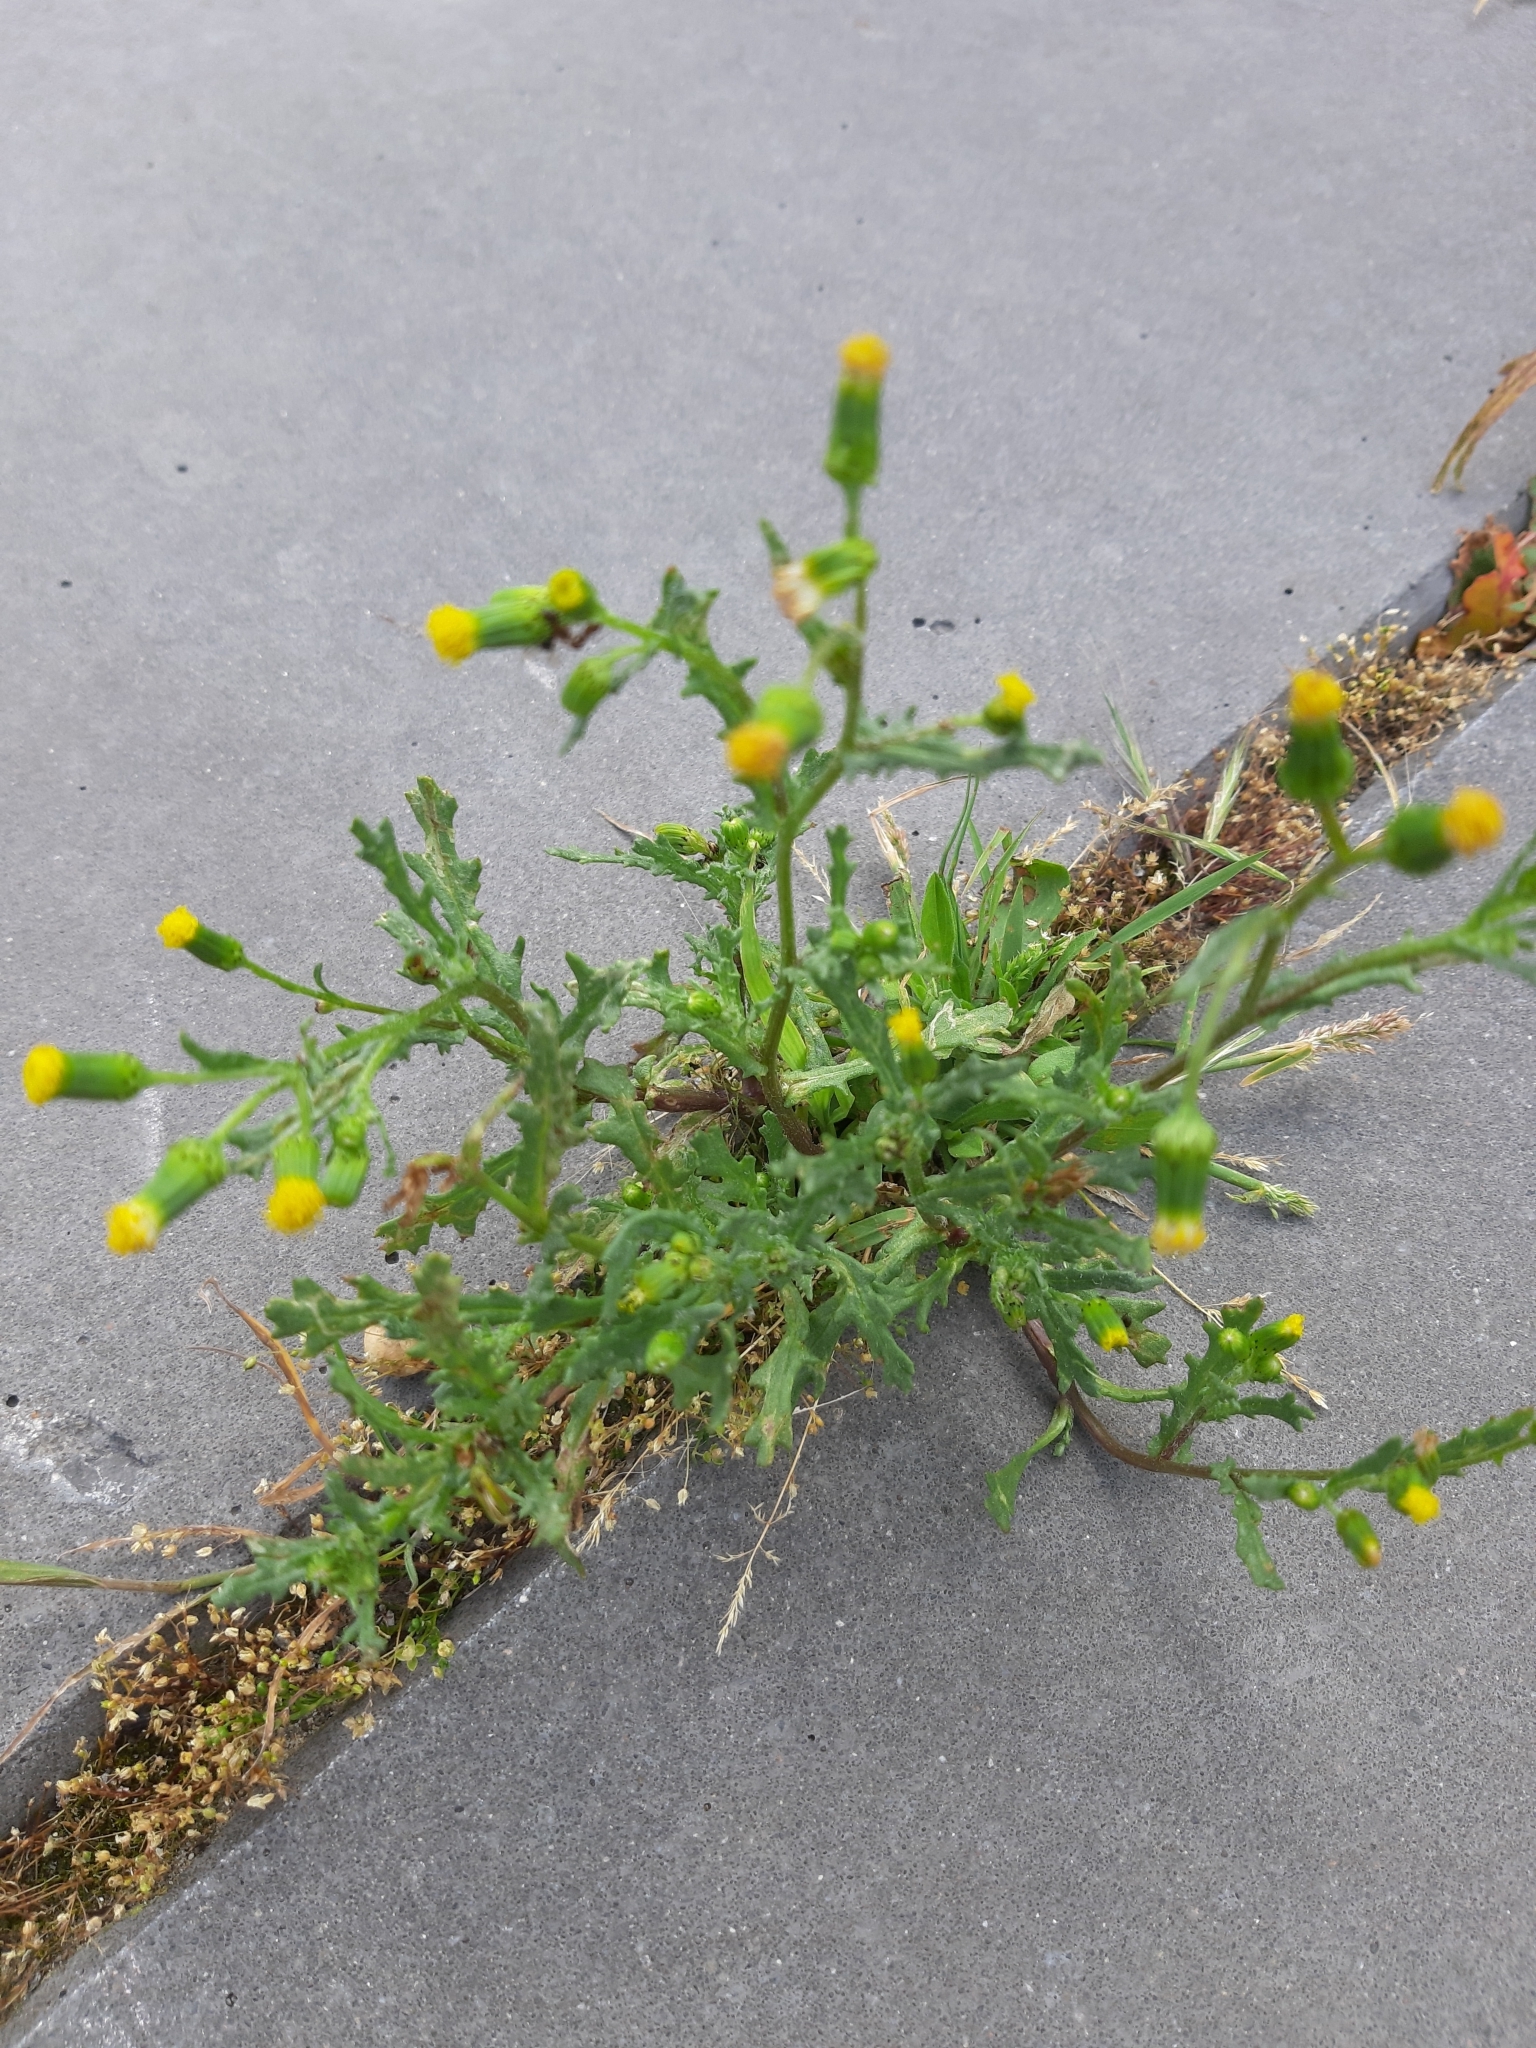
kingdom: Plantae
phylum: Tracheophyta
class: Magnoliopsida
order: Asterales
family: Asteraceae
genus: Senecio
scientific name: Senecio vulgaris
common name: Old-man-in-the-spring
